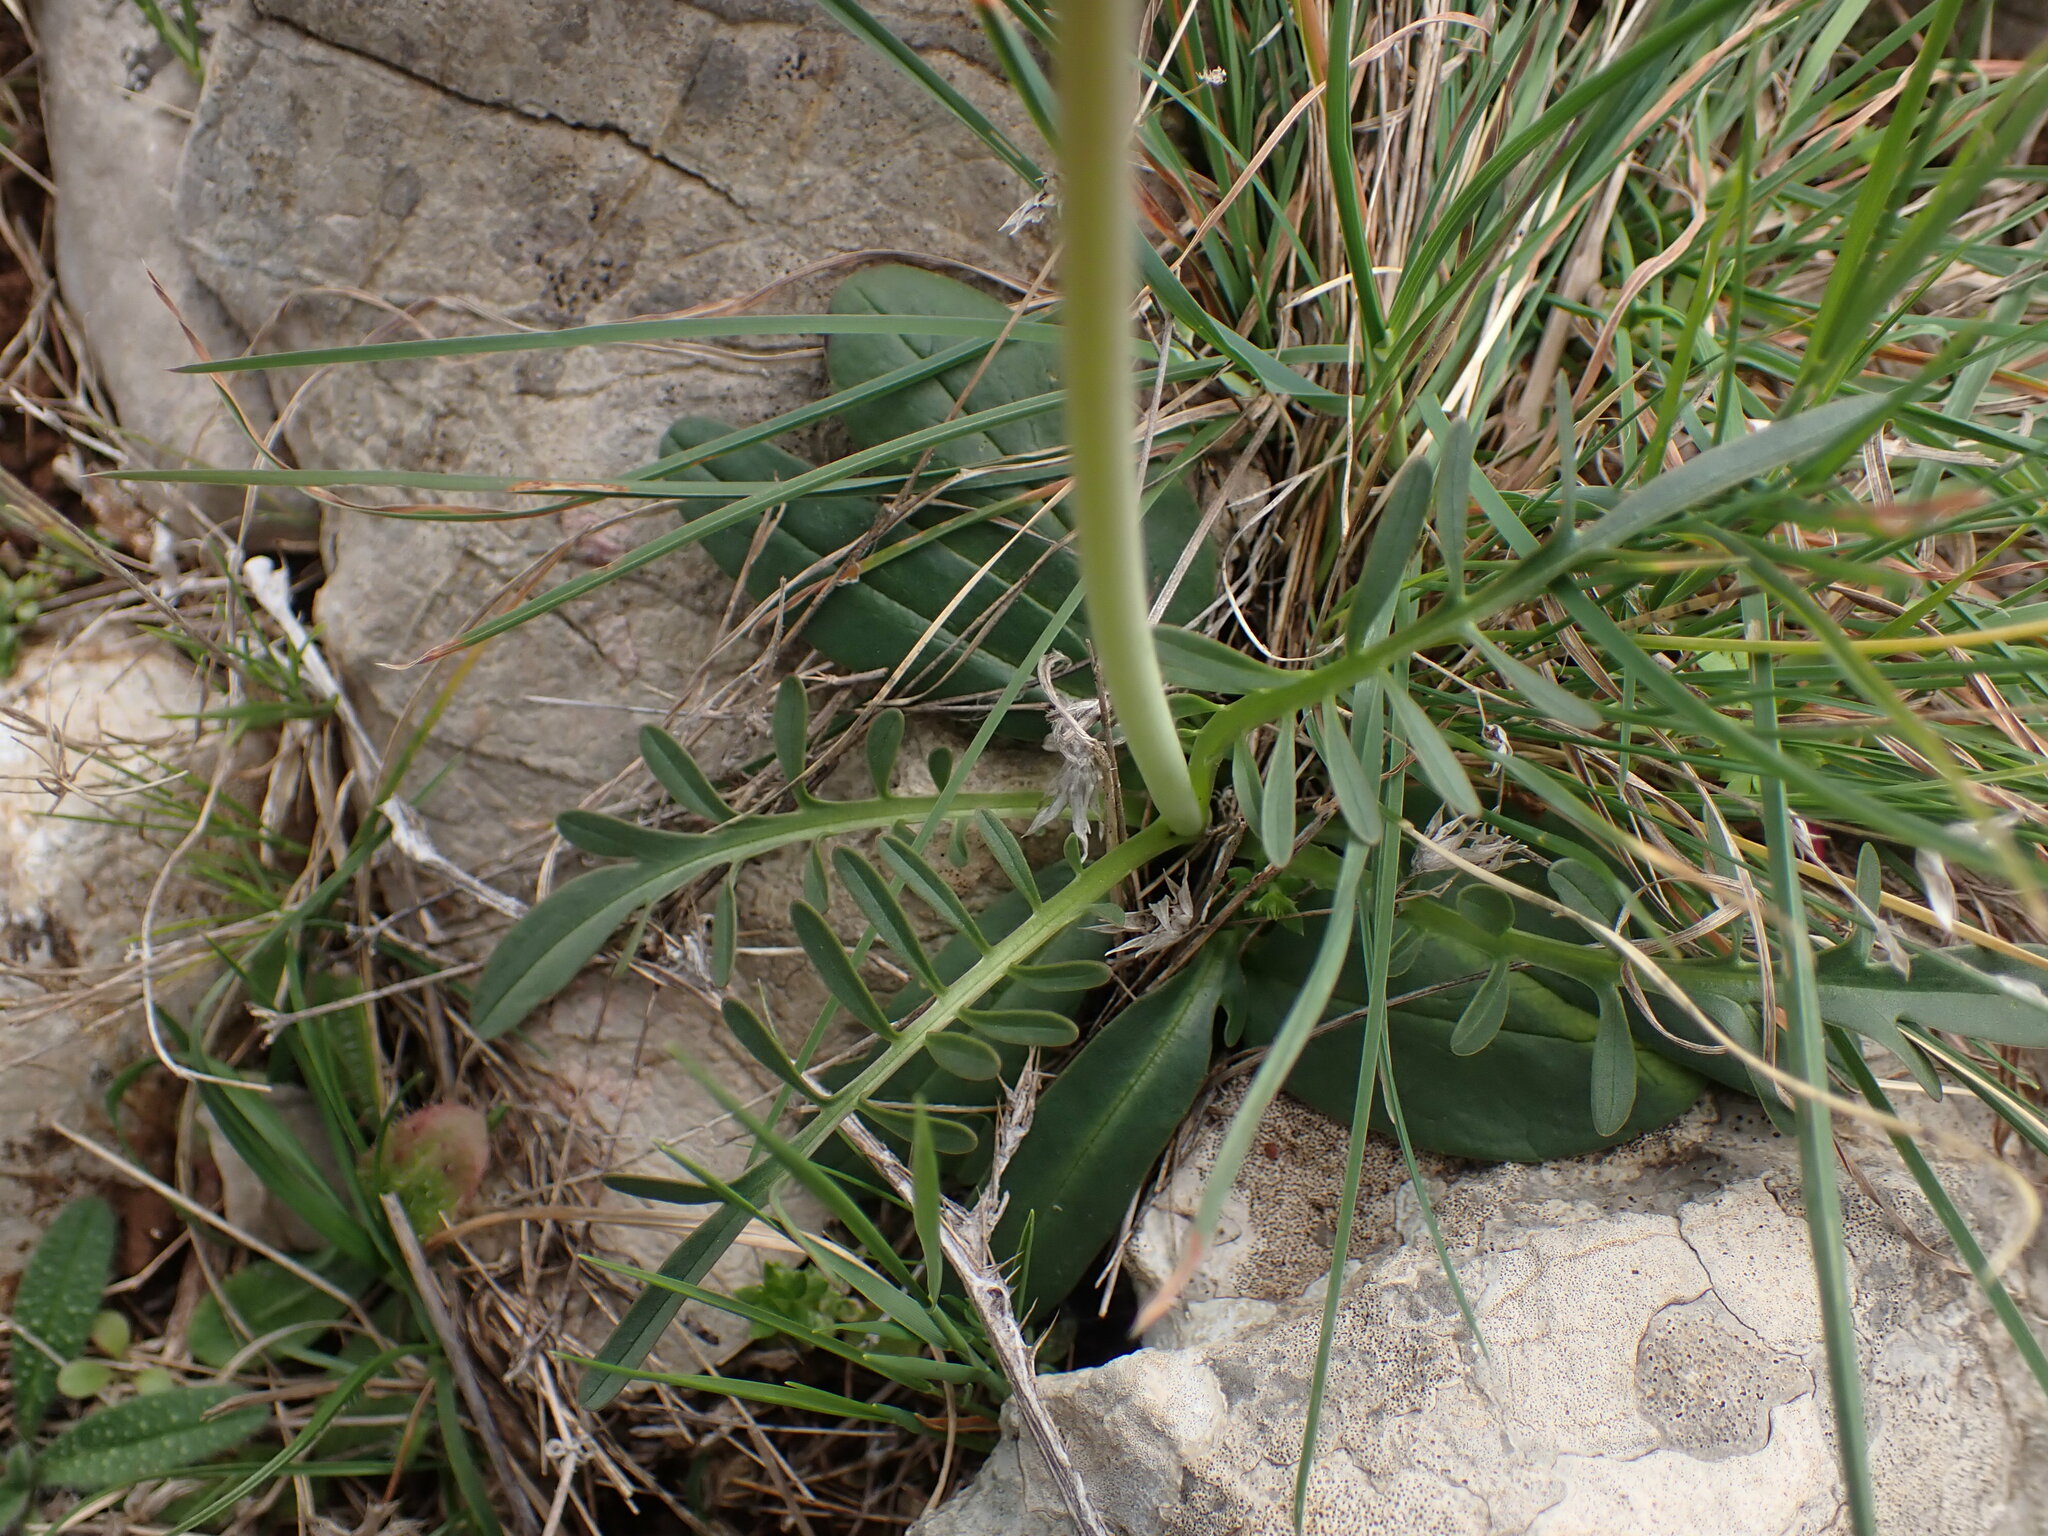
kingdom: Plantae
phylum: Tracheophyta
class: Magnoliopsida
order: Dipsacales
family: Caprifoliaceae
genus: Valeriana
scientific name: Valeriana tuberosa
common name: Tuberous valerian
